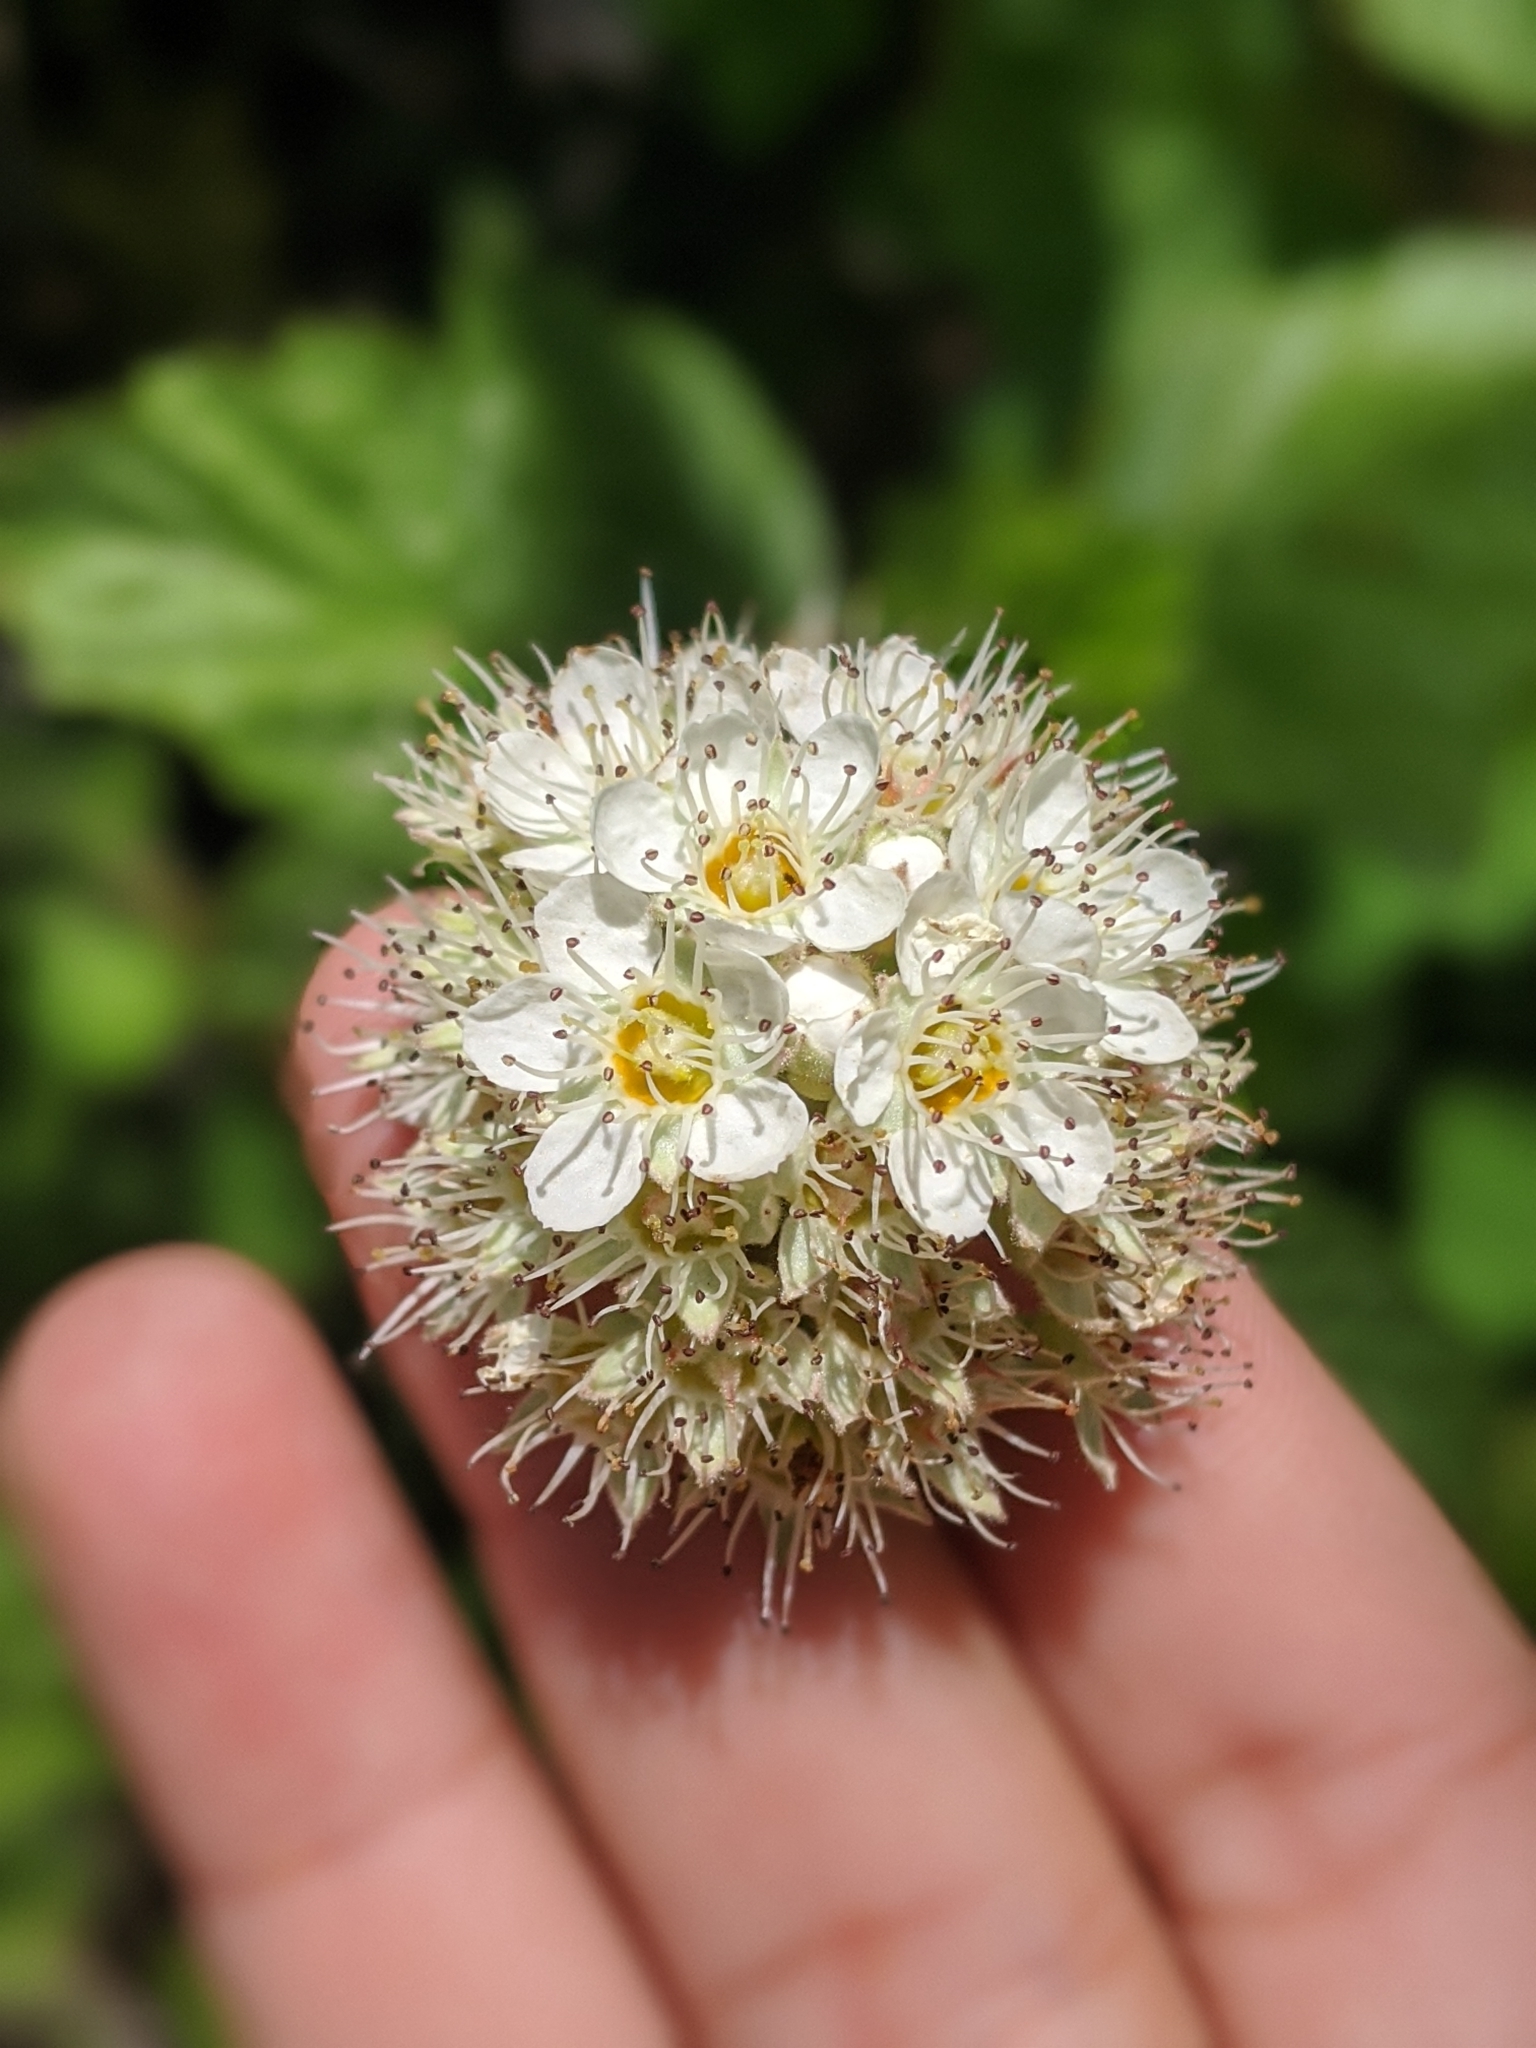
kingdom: Plantae
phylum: Tracheophyta
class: Magnoliopsida
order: Rosales
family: Rosaceae
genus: Physocarpus
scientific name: Physocarpus capitatus
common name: Pacific ninebark
